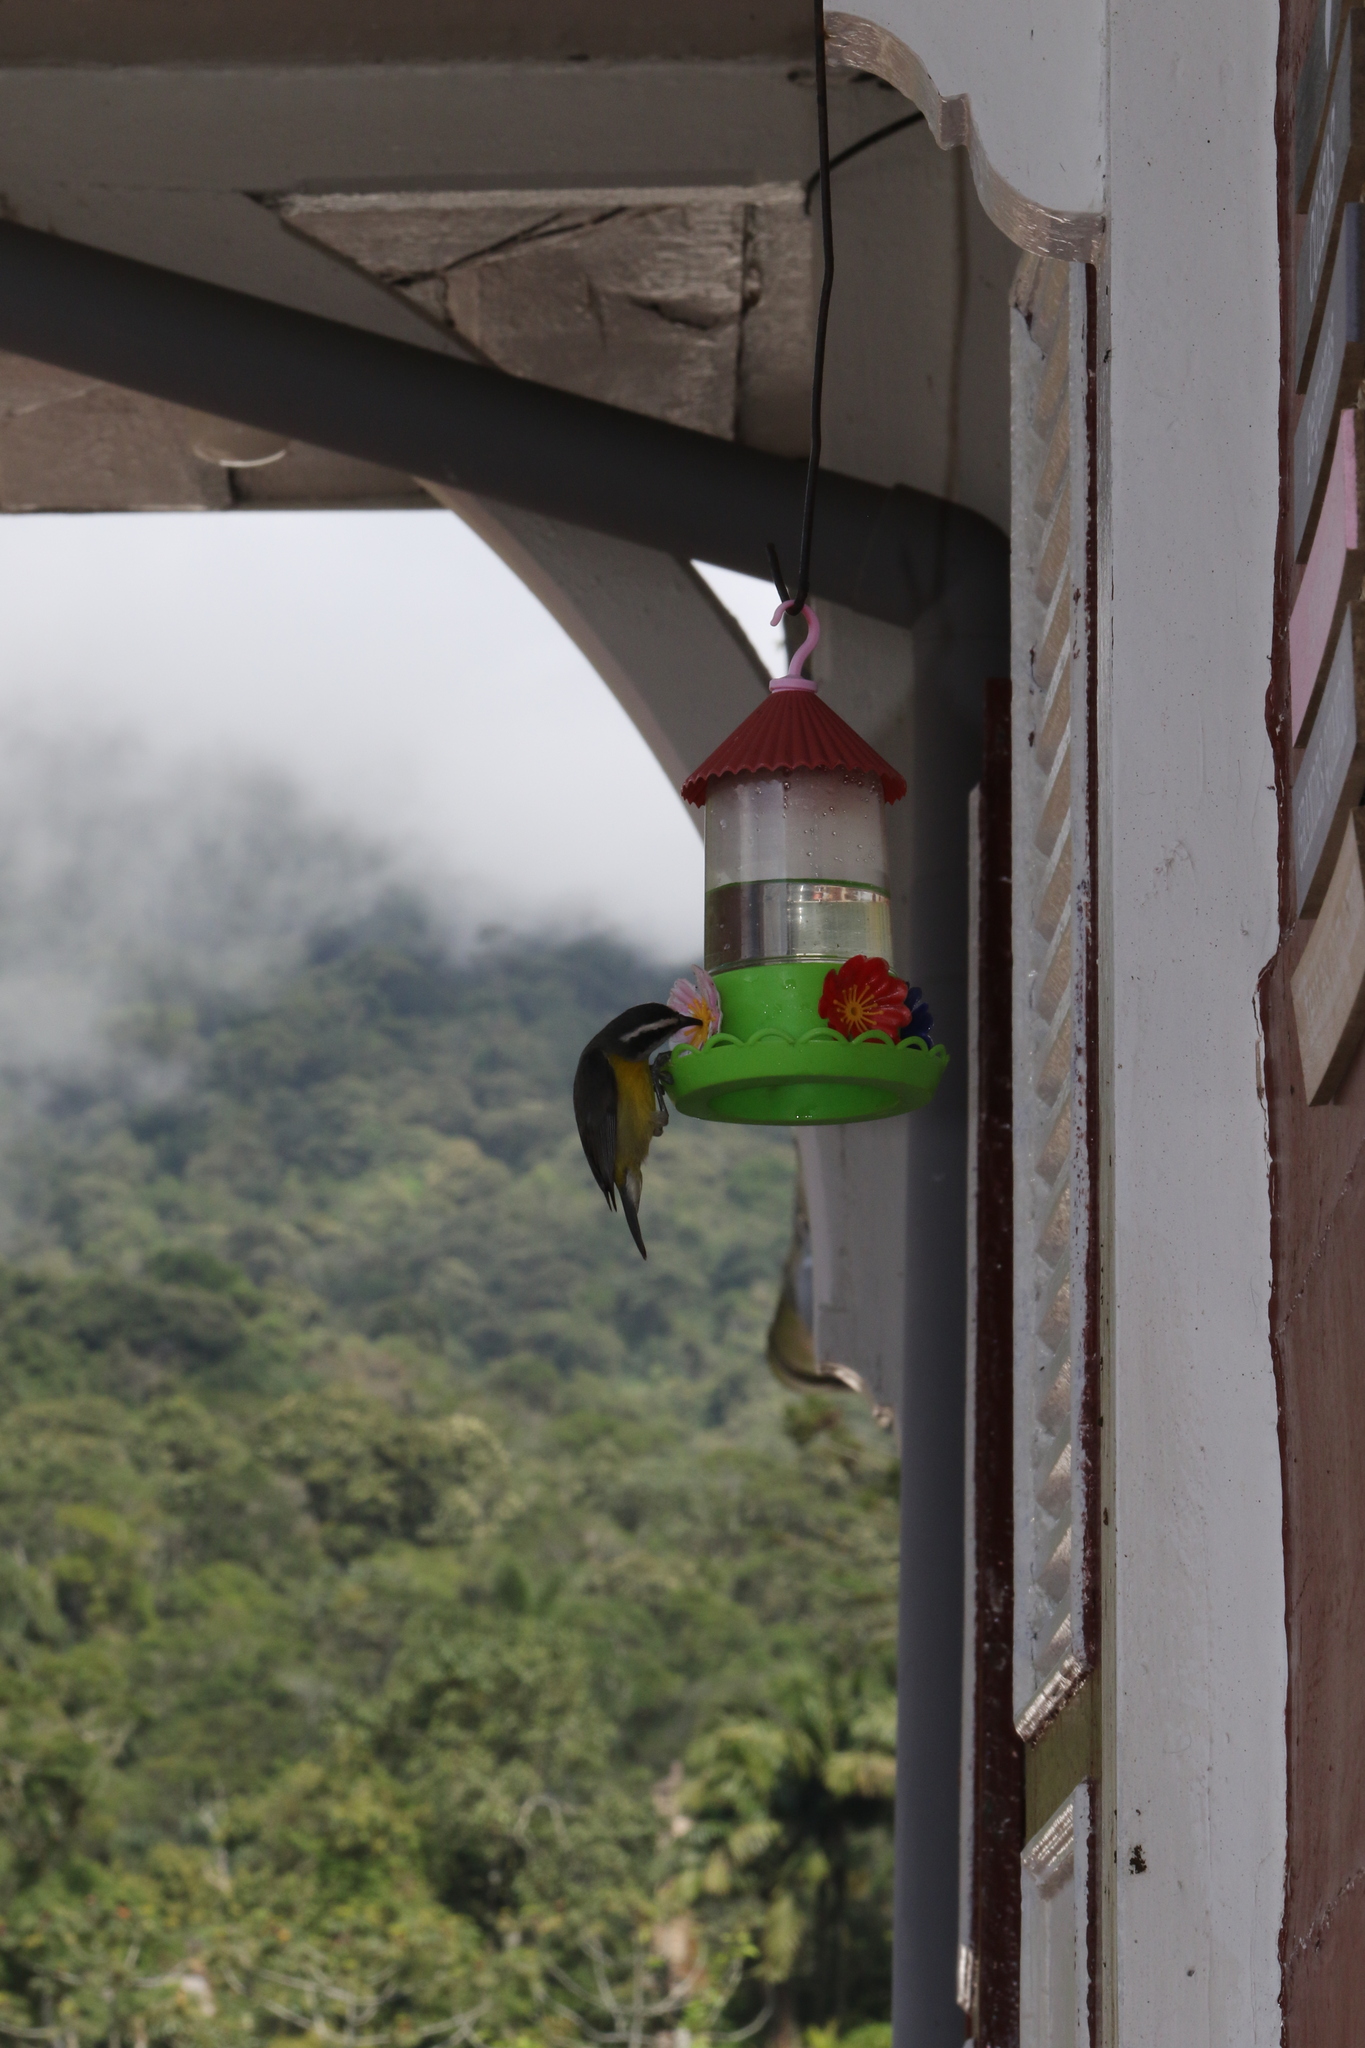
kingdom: Animalia
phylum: Chordata
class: Aves
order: Passeriformes
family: Thraupidae
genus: Coereba
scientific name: Coereba flaveola
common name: Bananaquit
